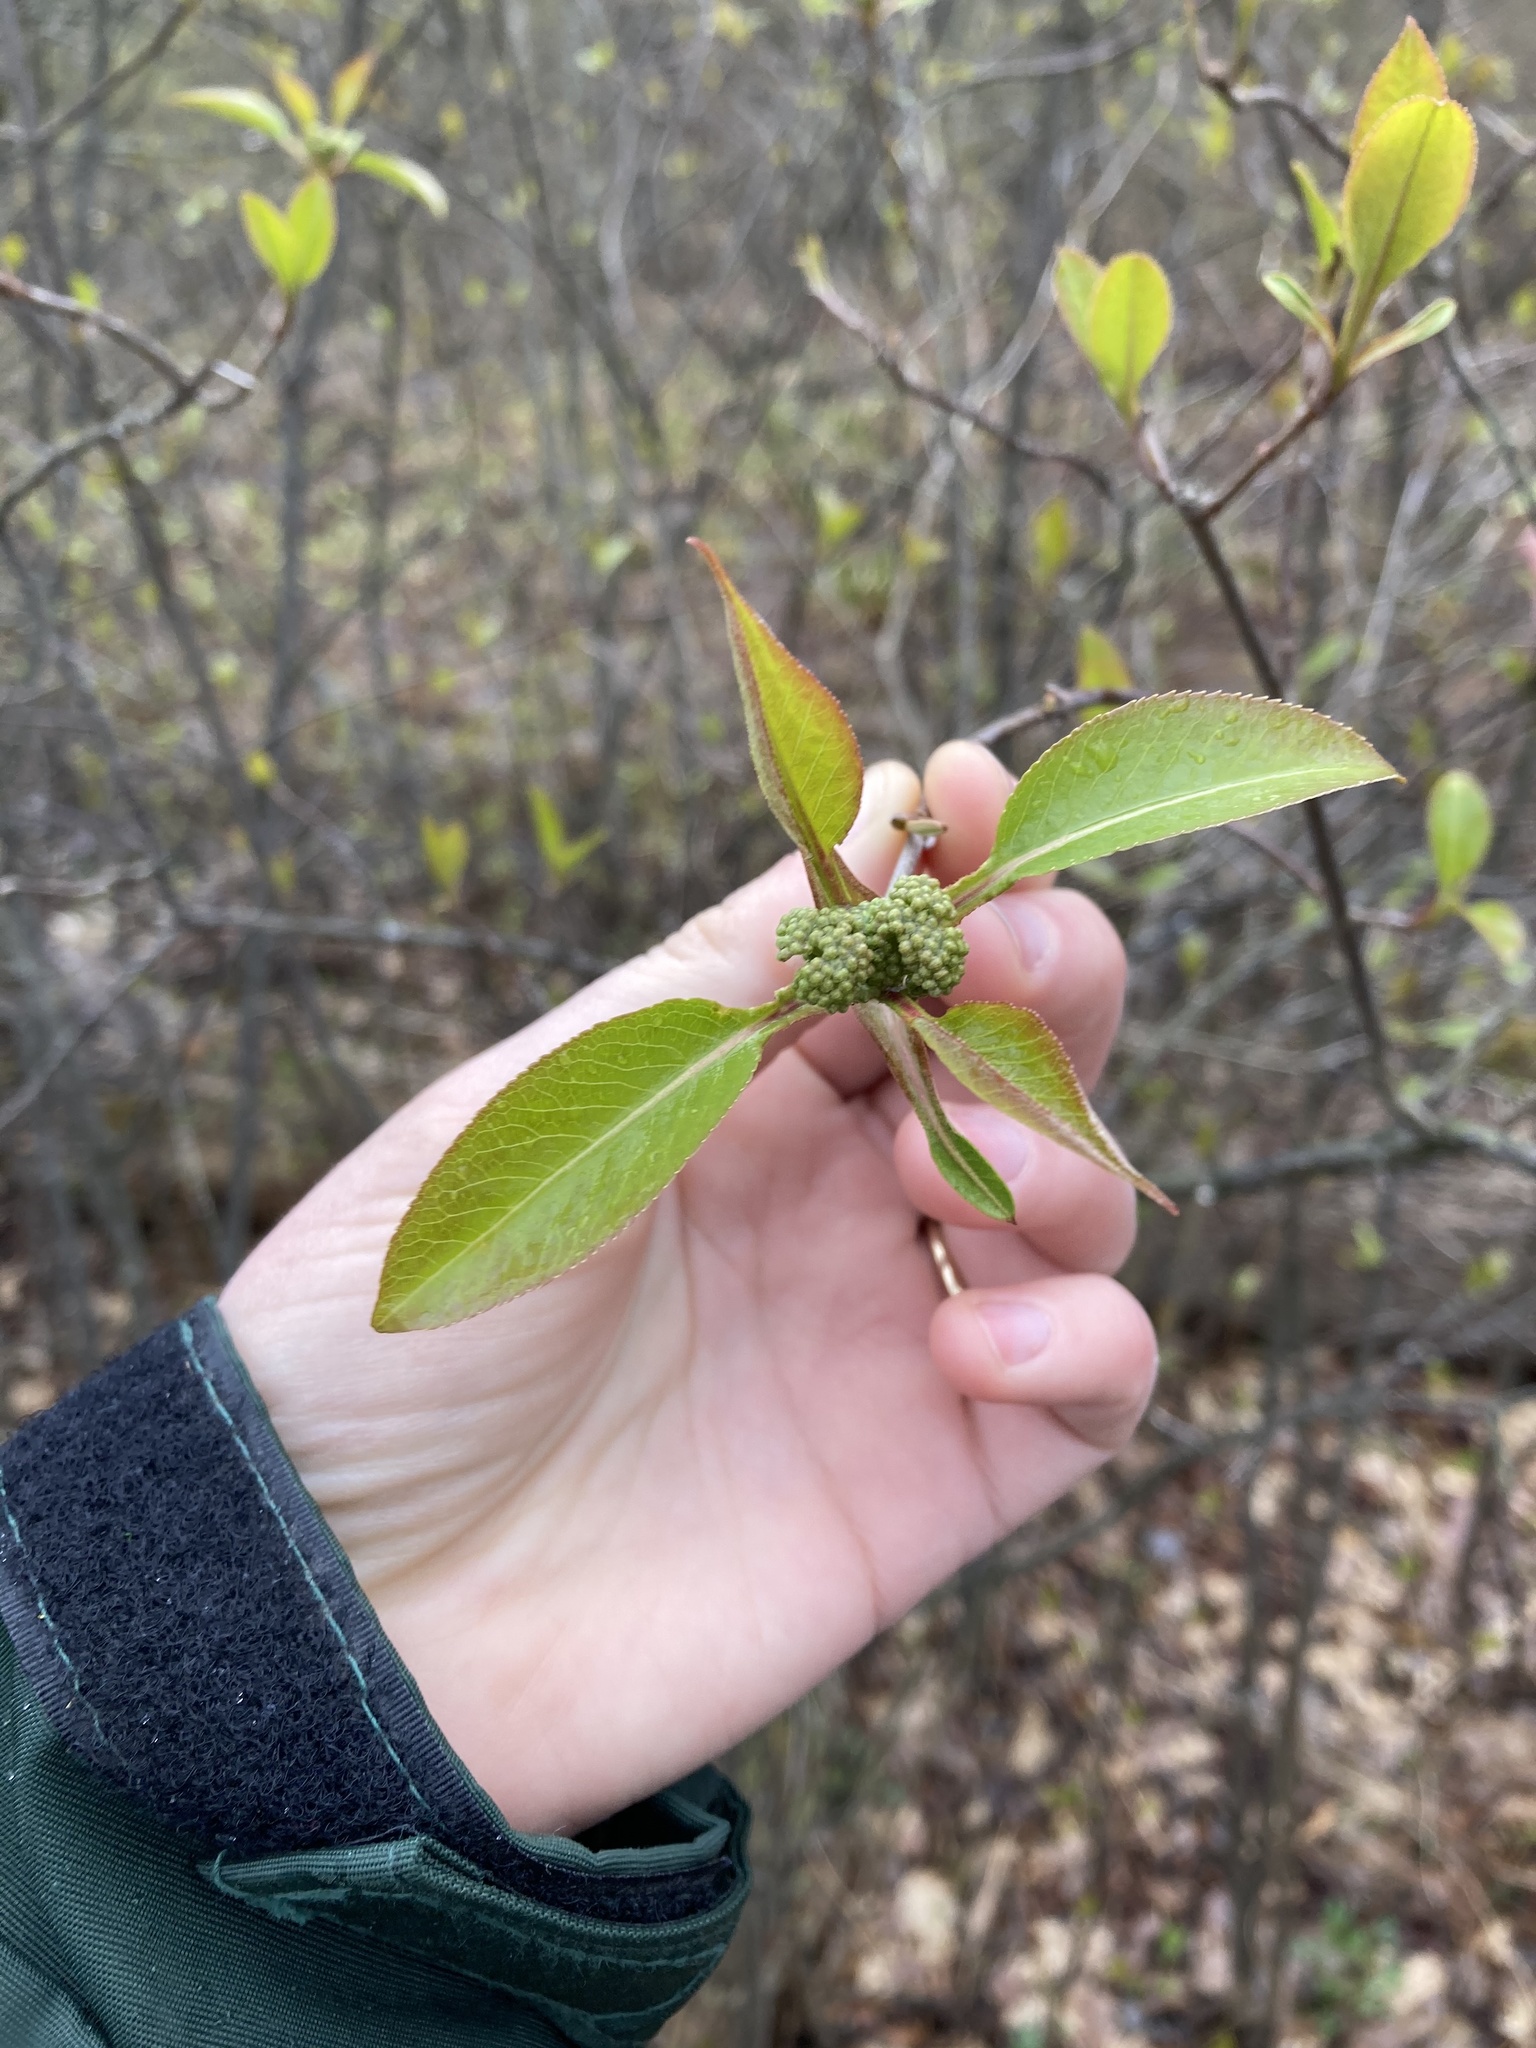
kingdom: Plantae
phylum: Tracheophyta
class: Magnoliopsida
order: Dipsacales
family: Viburnaceae
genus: Viburnum
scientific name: Viburnum lentago
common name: Black haw
